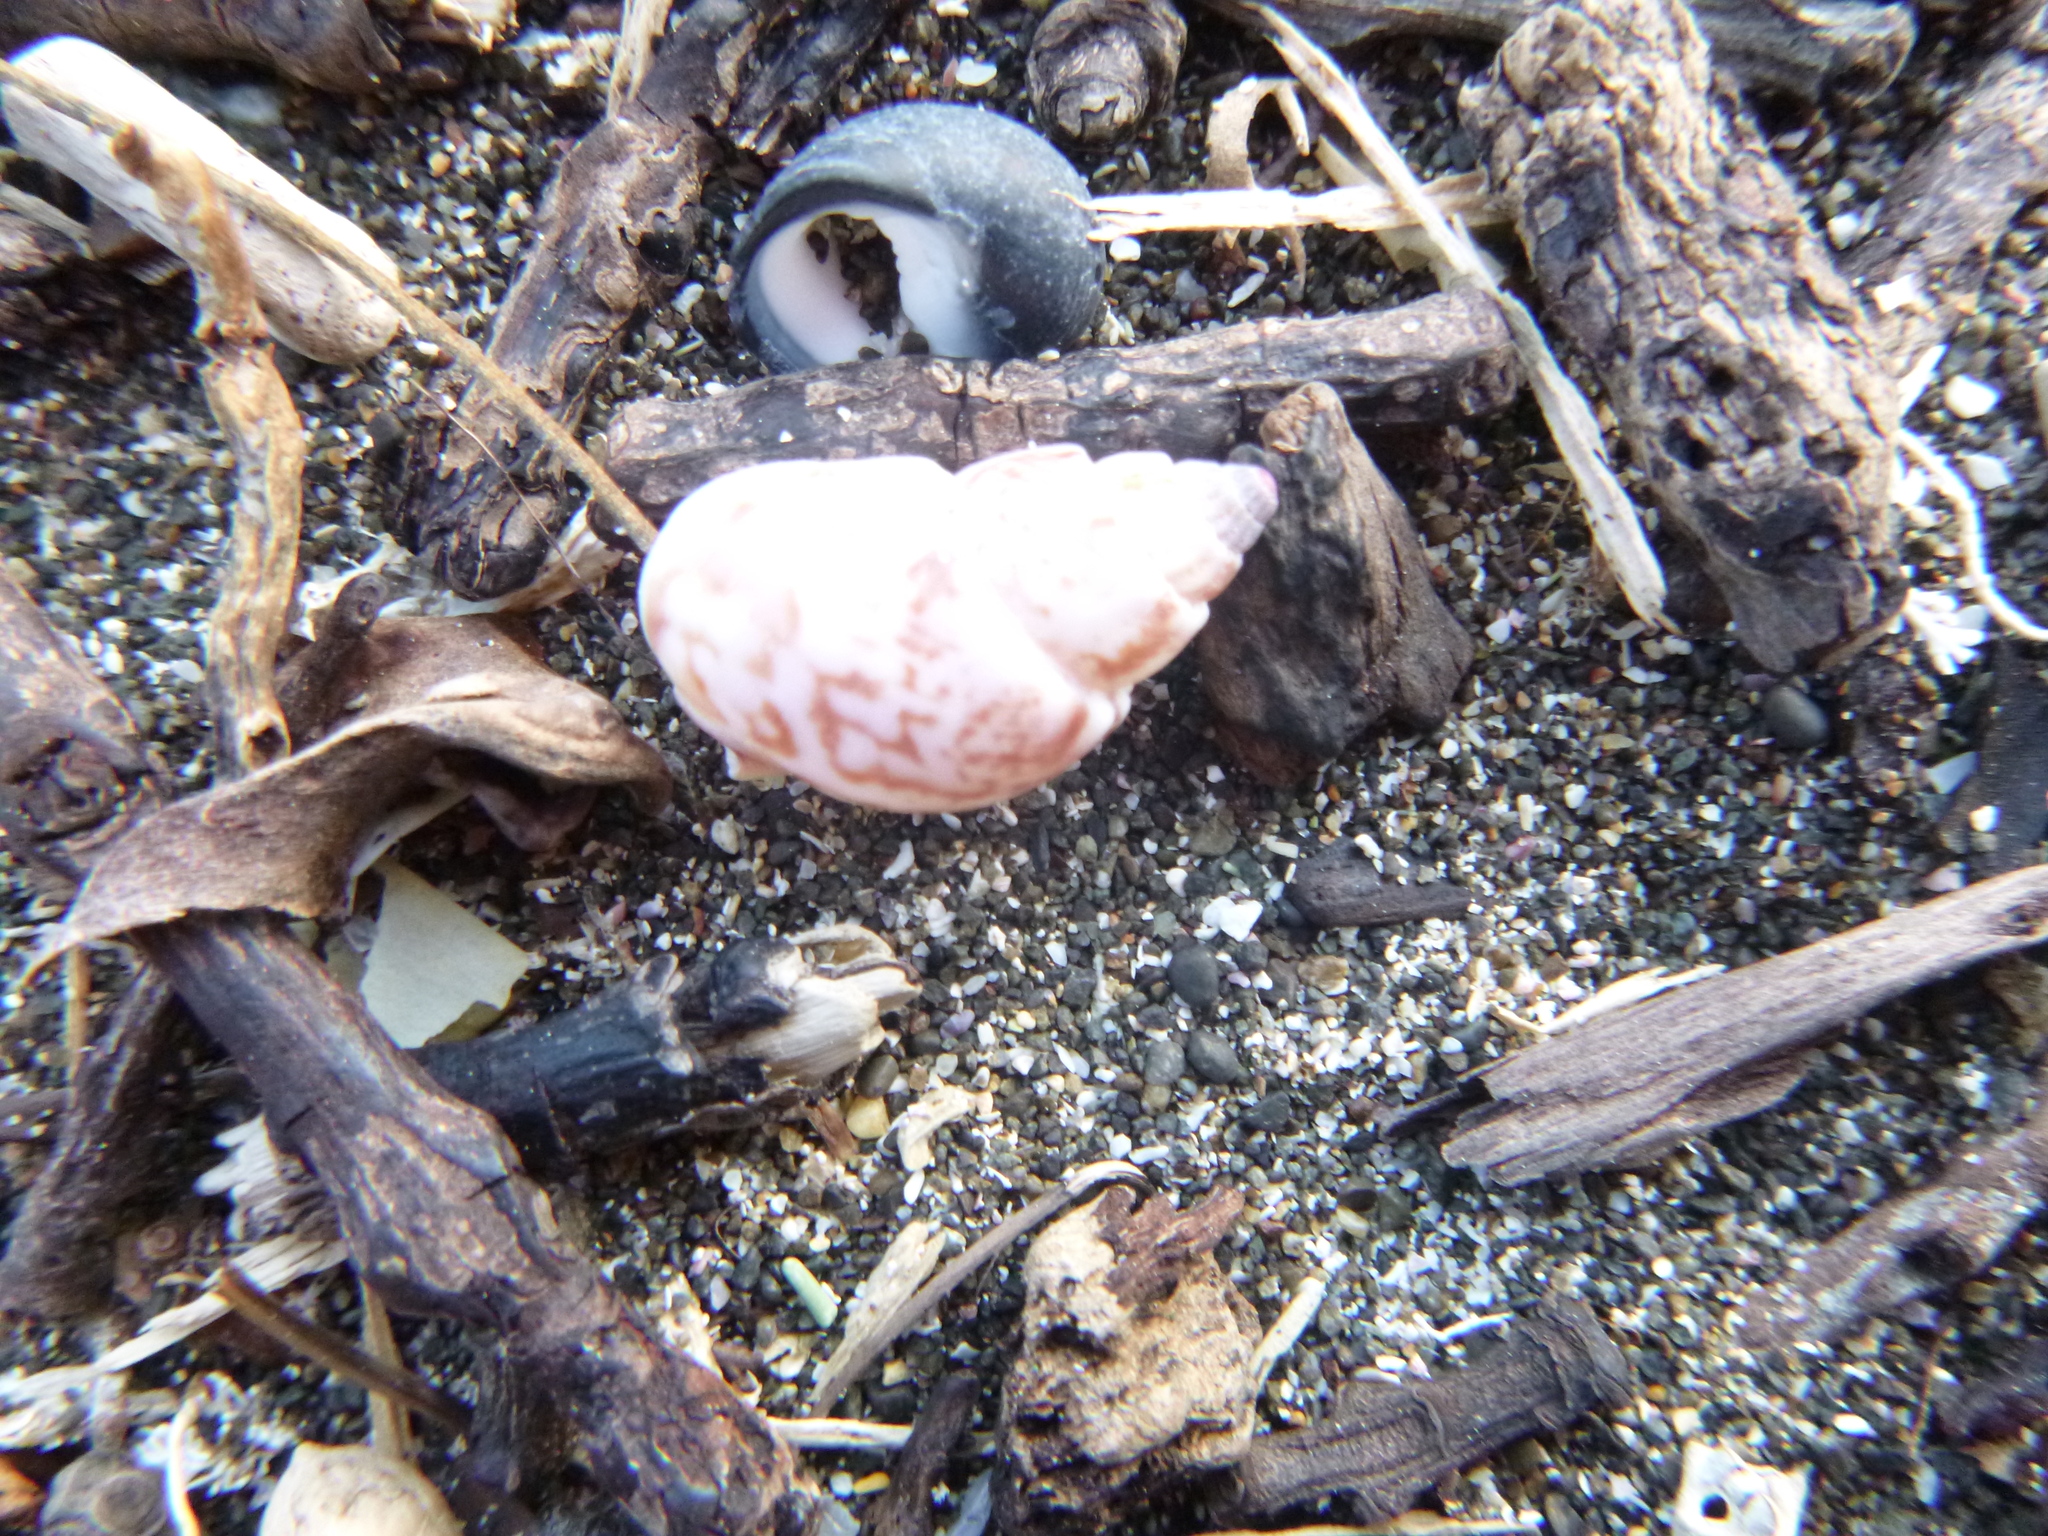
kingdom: Animalia
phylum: Mollusca
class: Gastropoda
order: Neogastropoda
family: Nassariidae
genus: Nassarius
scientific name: Nassarius spiratus
